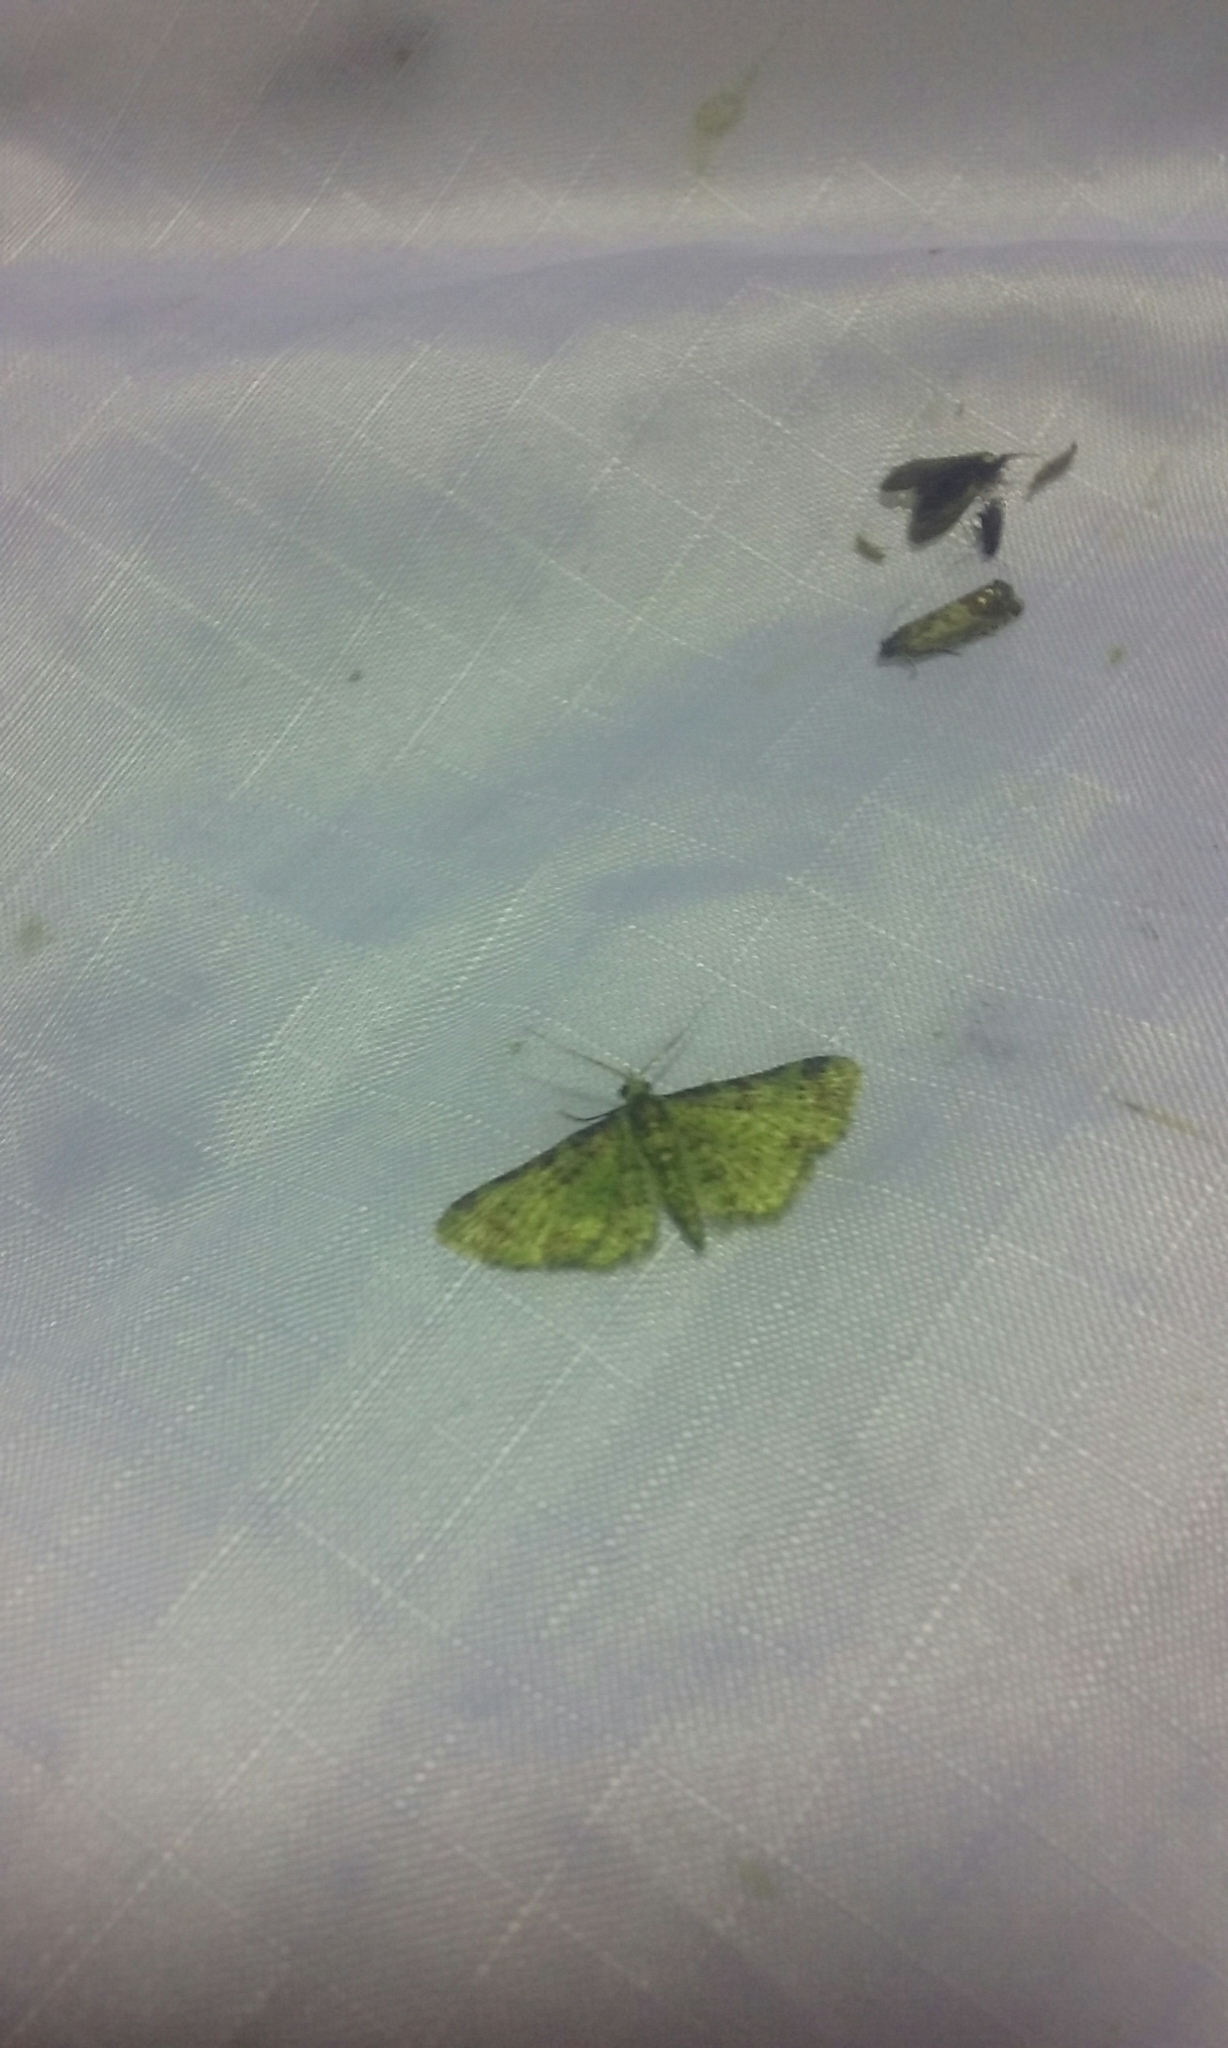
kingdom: Animalia
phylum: Arthropoda
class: Insecta
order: Lepidoptera
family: Geometridae
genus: Pasiphila
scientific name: Pasiphila plinthina
